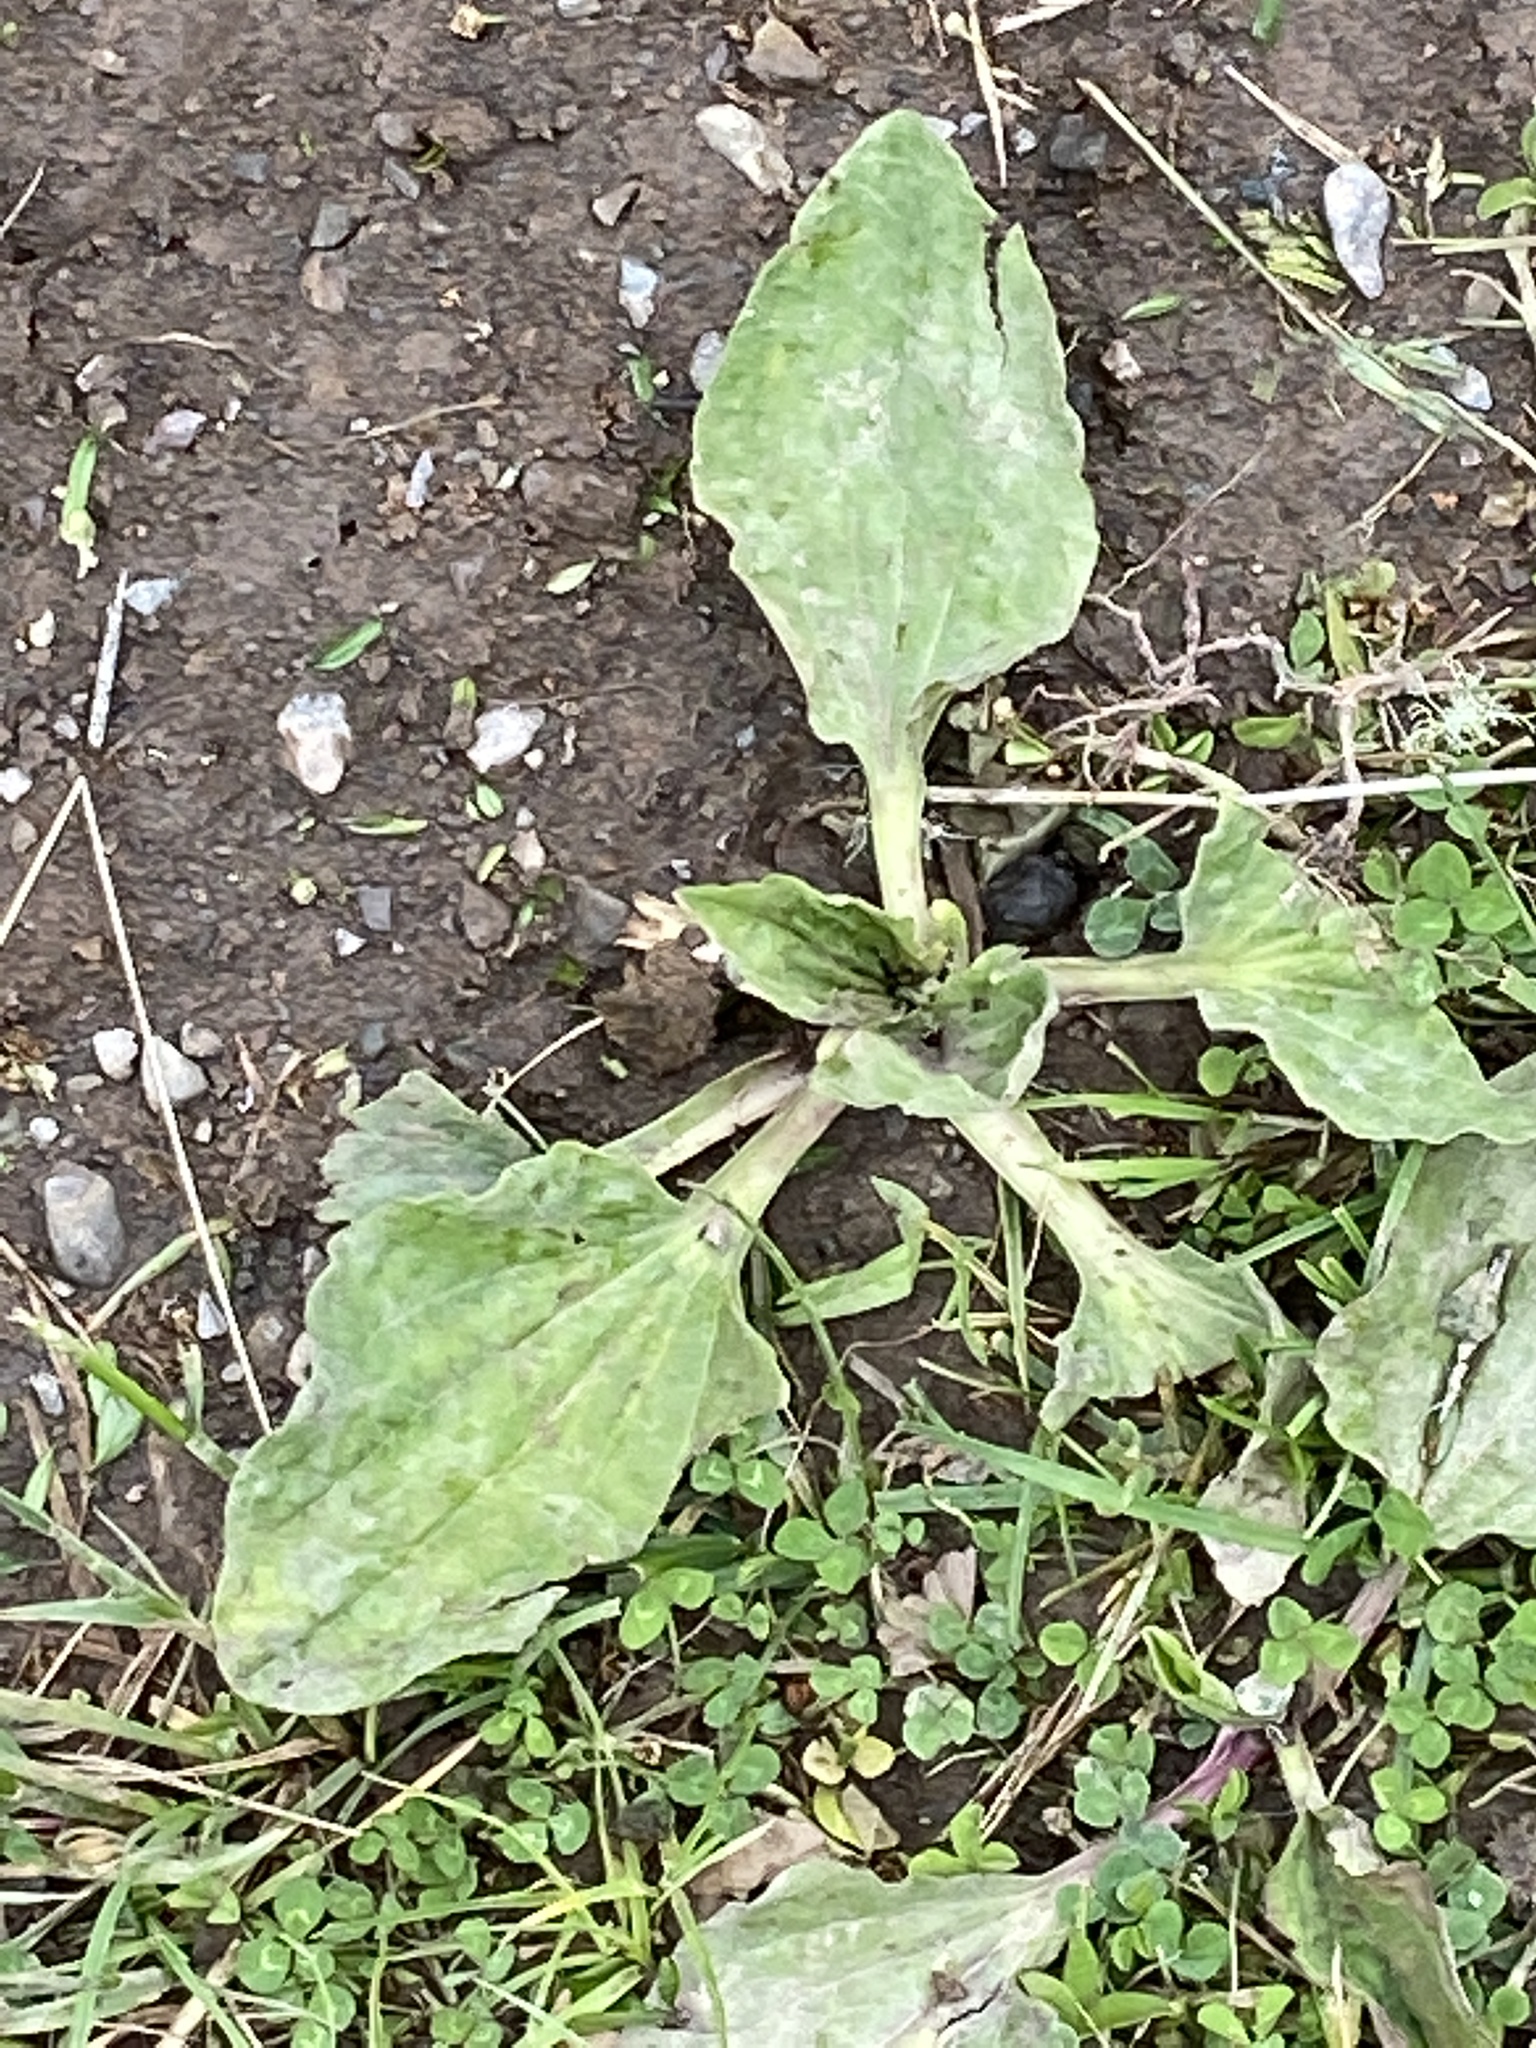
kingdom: Plantae
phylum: Tracheophyta
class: Magnoliopsida
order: Lamiales
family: Plantaginaceae
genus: Plantago
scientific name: Plantago major
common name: Common plantain
